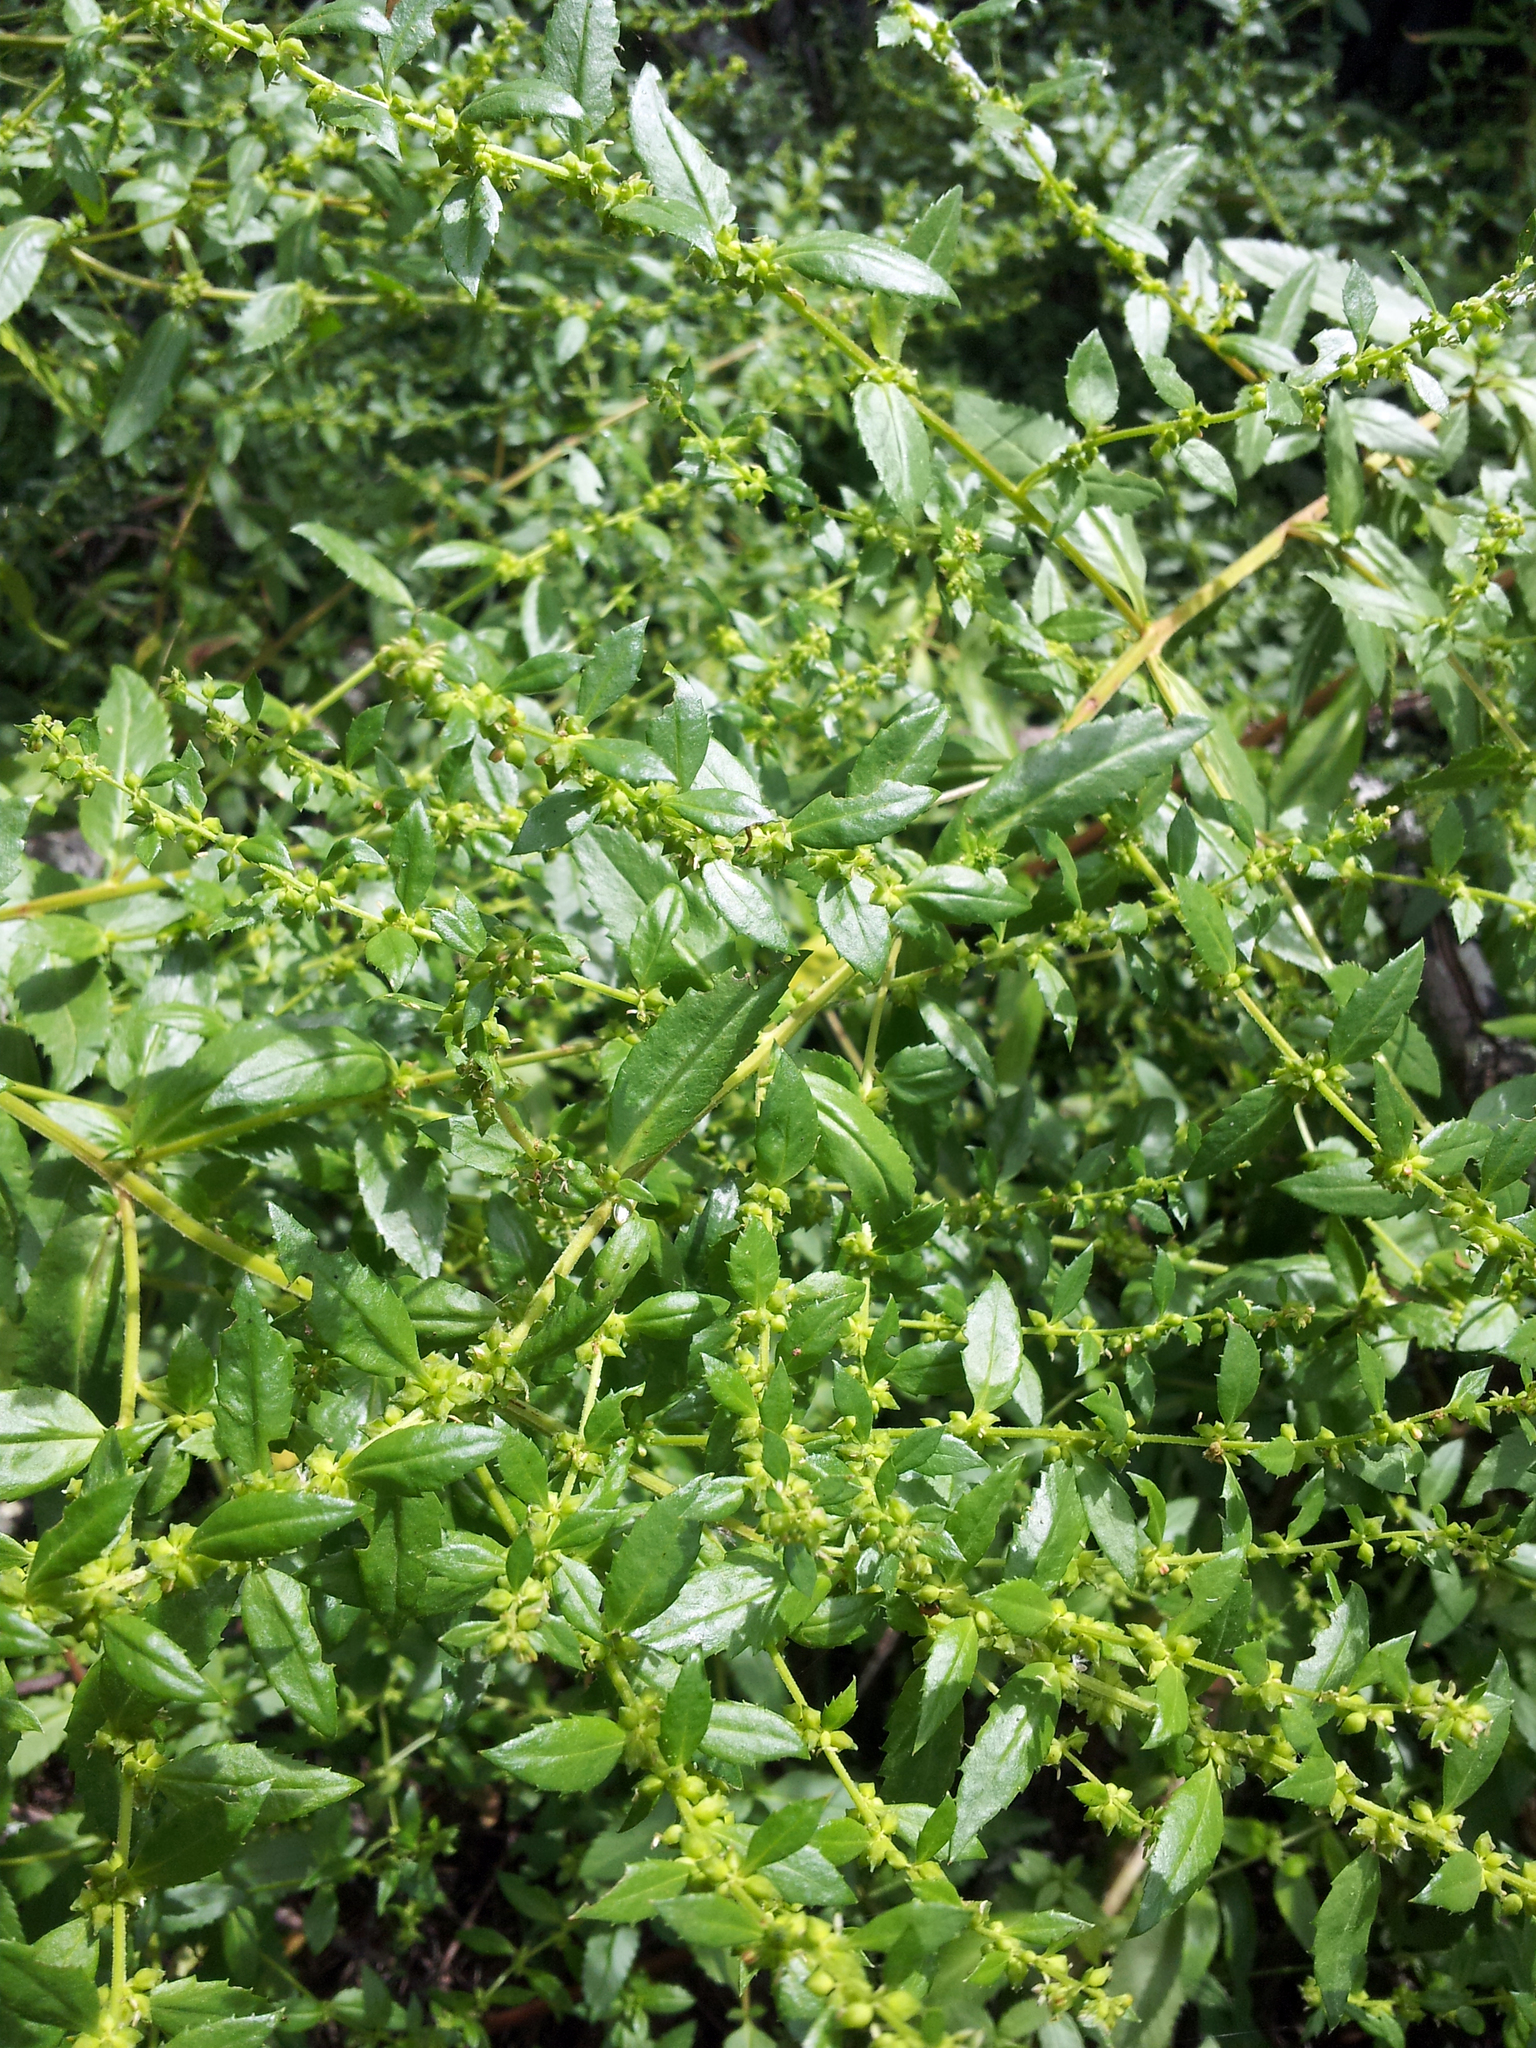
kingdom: Plantae
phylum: Tracheophyta
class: Magnoliopsida
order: Saxifragales
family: Haloragaceae
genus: Haloragis
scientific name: Haloragis erecta
